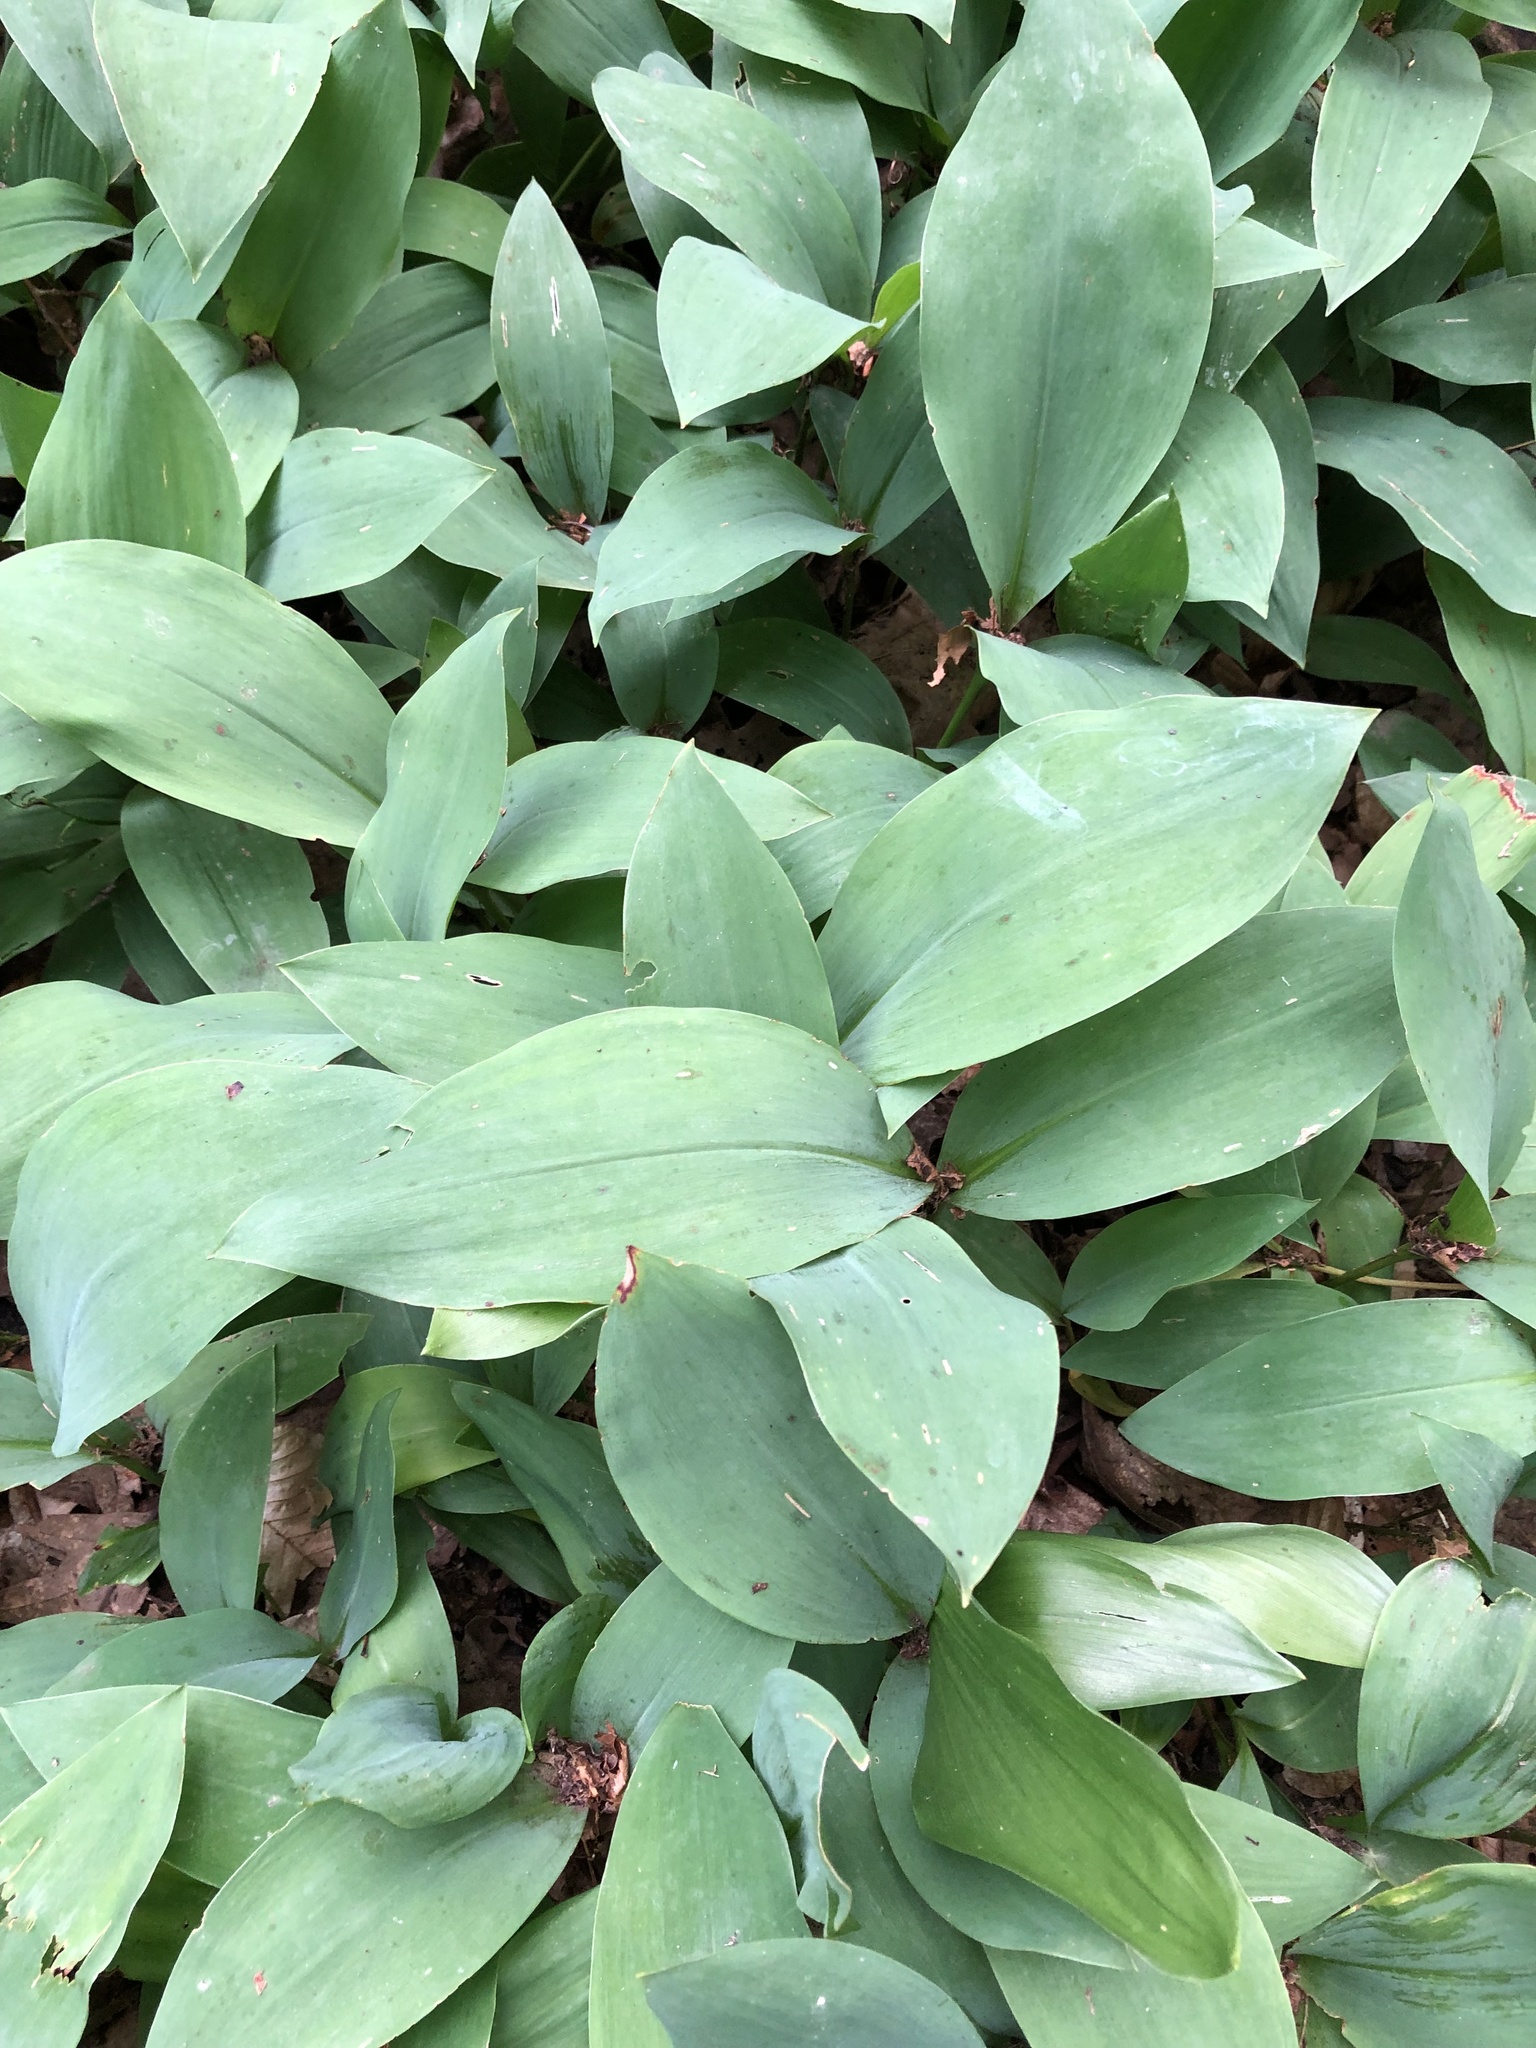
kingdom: Plantae
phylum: Tracheophyta
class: Liliopsida
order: Asparagales
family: Asparagaceae
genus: Convallaria
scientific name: Convallaria majalis
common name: Lily-of-the-valley
